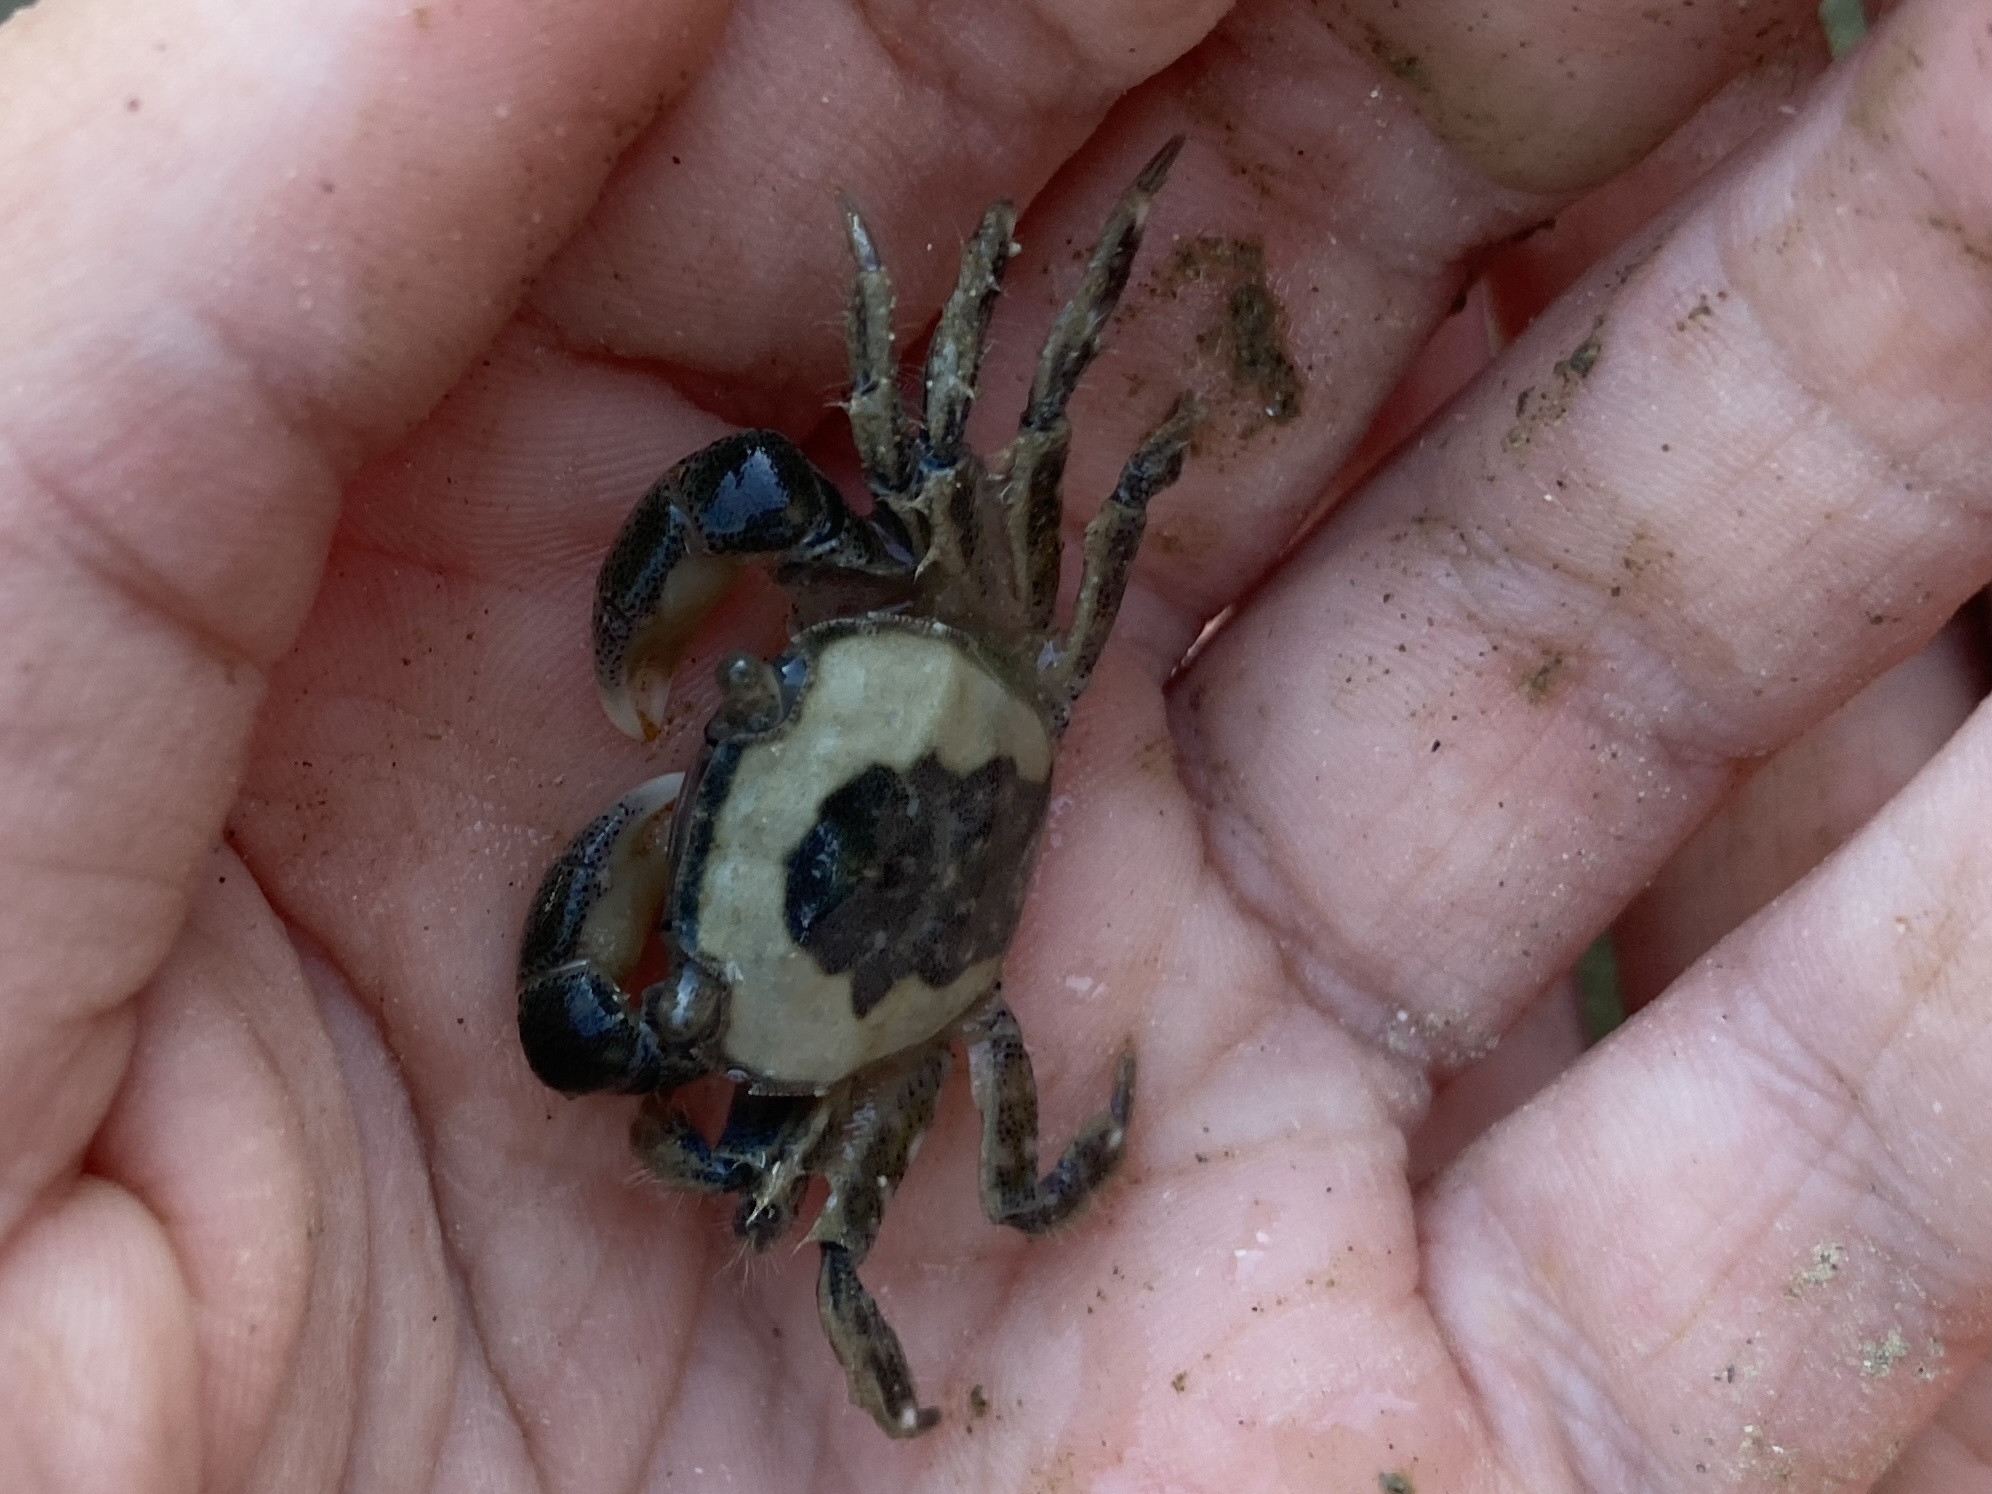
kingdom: Animalia
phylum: Arthropoda
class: Malacostraca
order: Decapoda
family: Varunidae
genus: Hemigrapsus
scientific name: Hemigrapsus crenulatus
